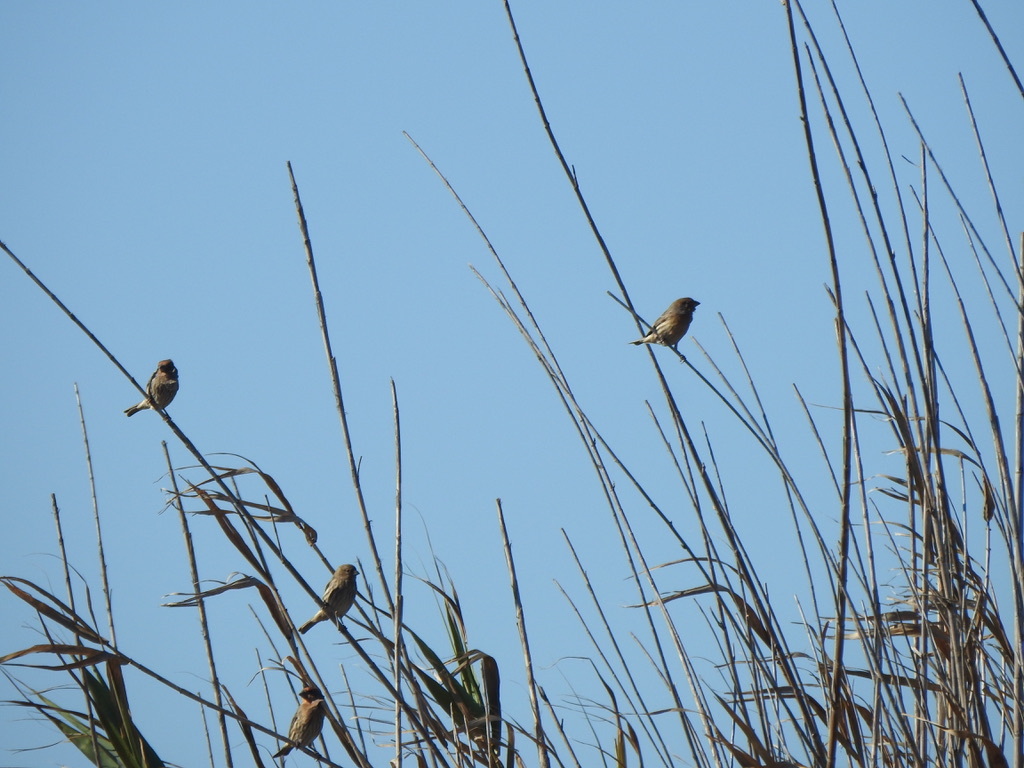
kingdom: Animalia
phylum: Chordata
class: Aves
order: Passeriformes
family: Fringillidae
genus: Haemorhous
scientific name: Haemorhous mexicanus
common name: House finch
